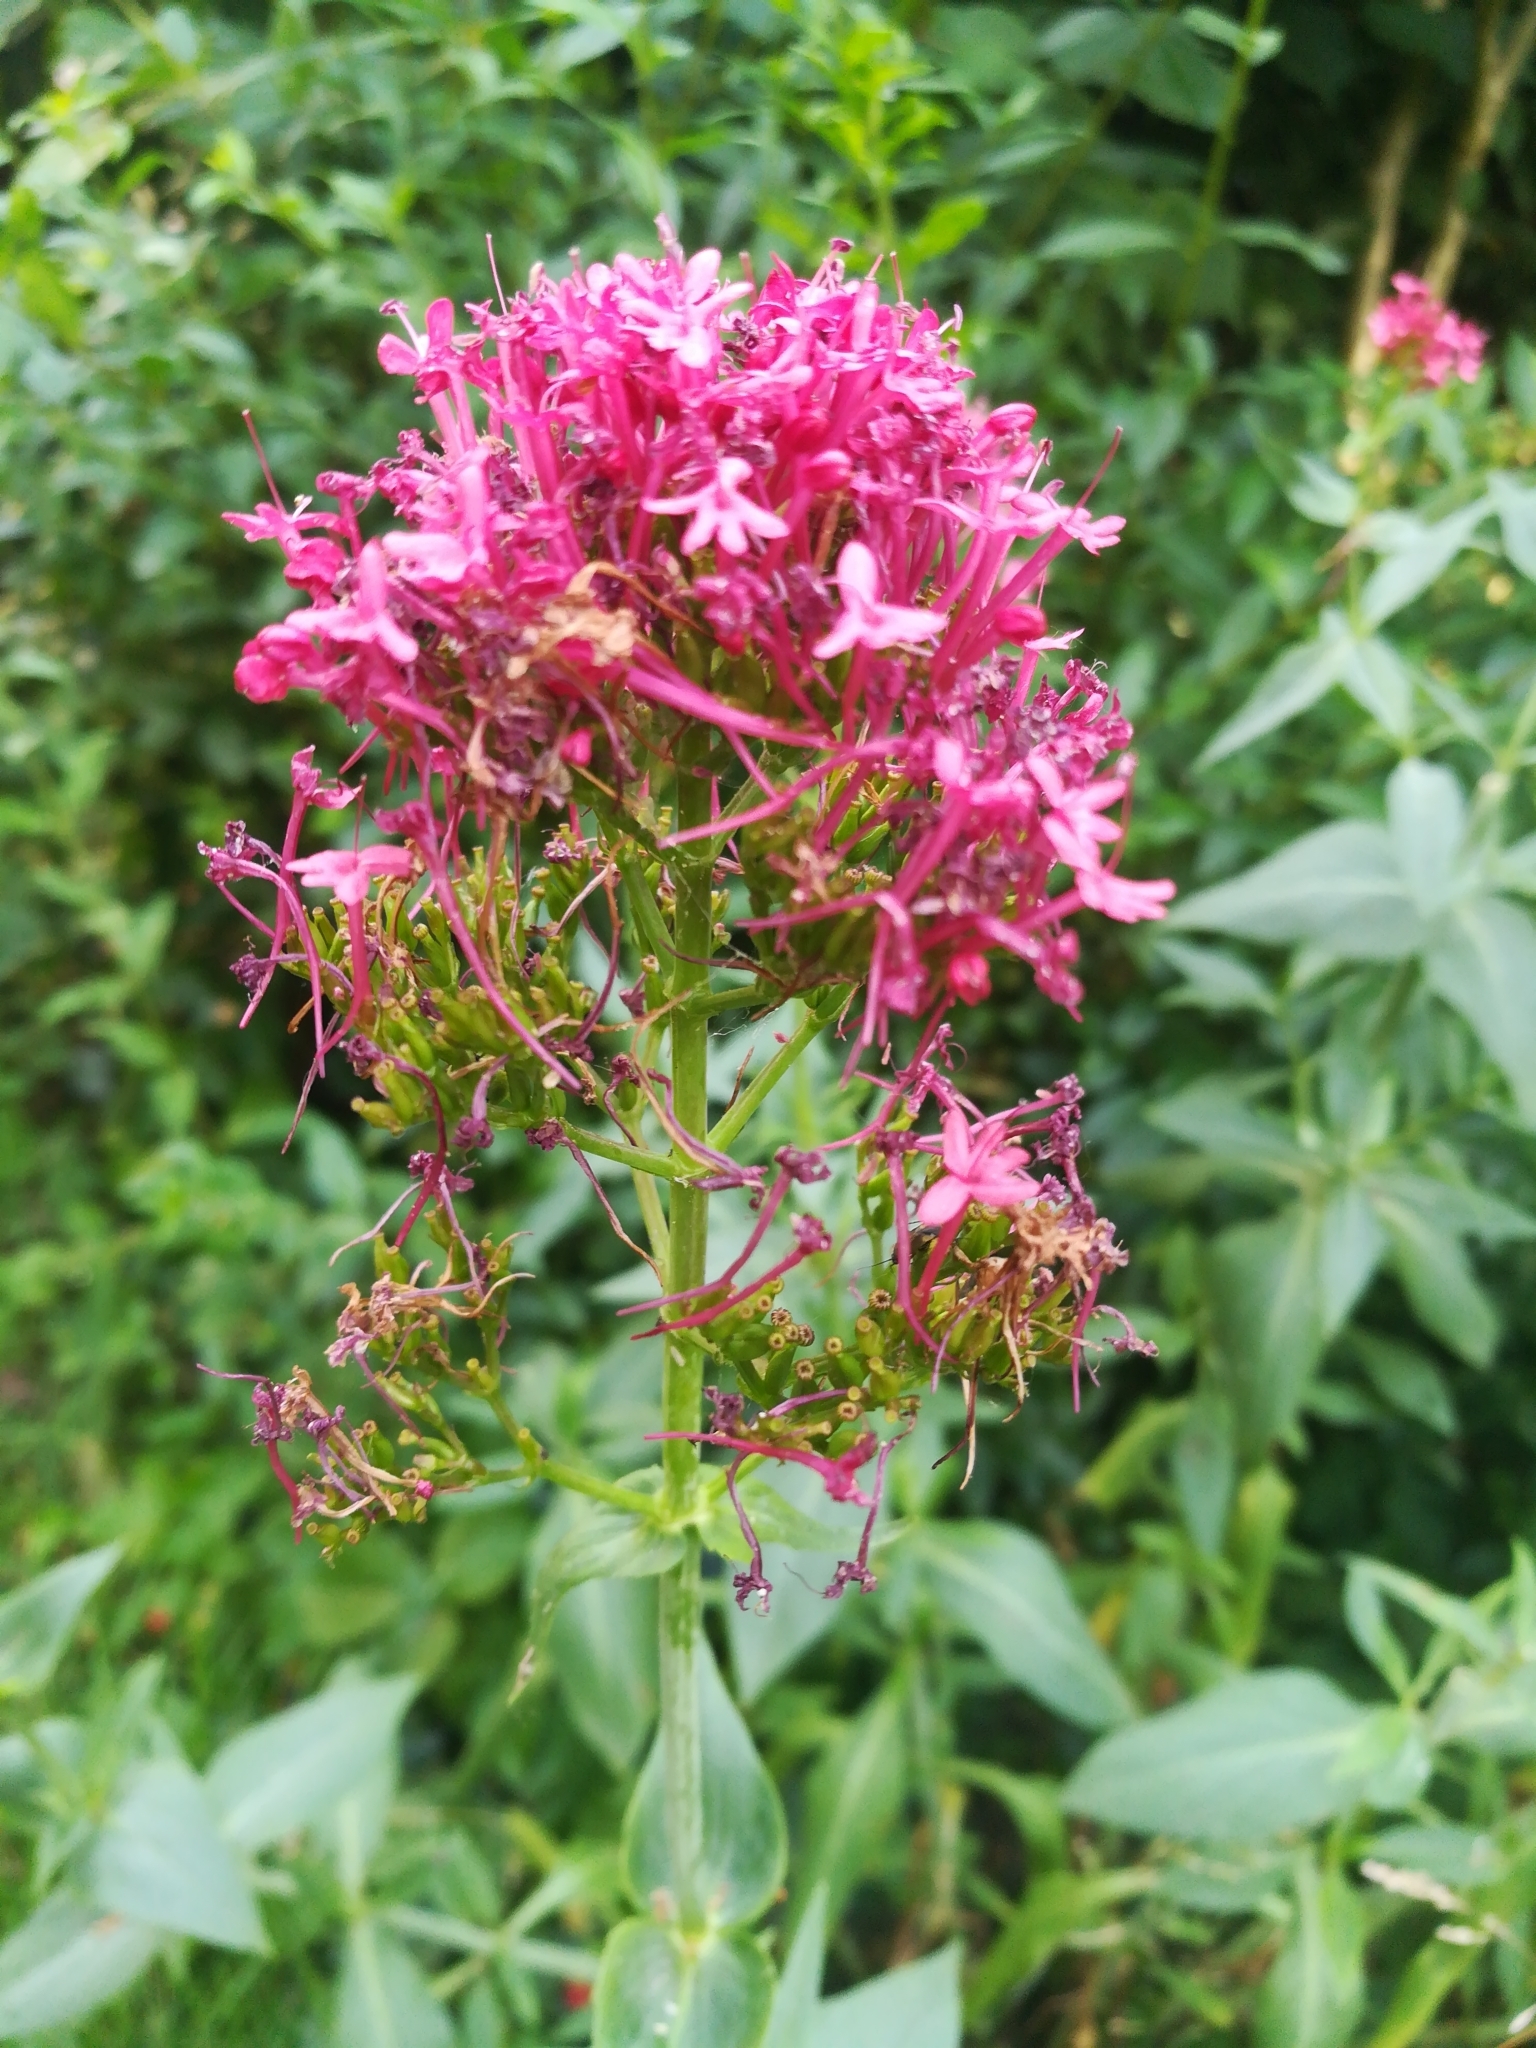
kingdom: Plantae
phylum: Tracheophyta
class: Magnoliopsida
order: Dipsacales
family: Caprifoliaceae
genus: Centranthus
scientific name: Centranthus ruber
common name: Red valerian
